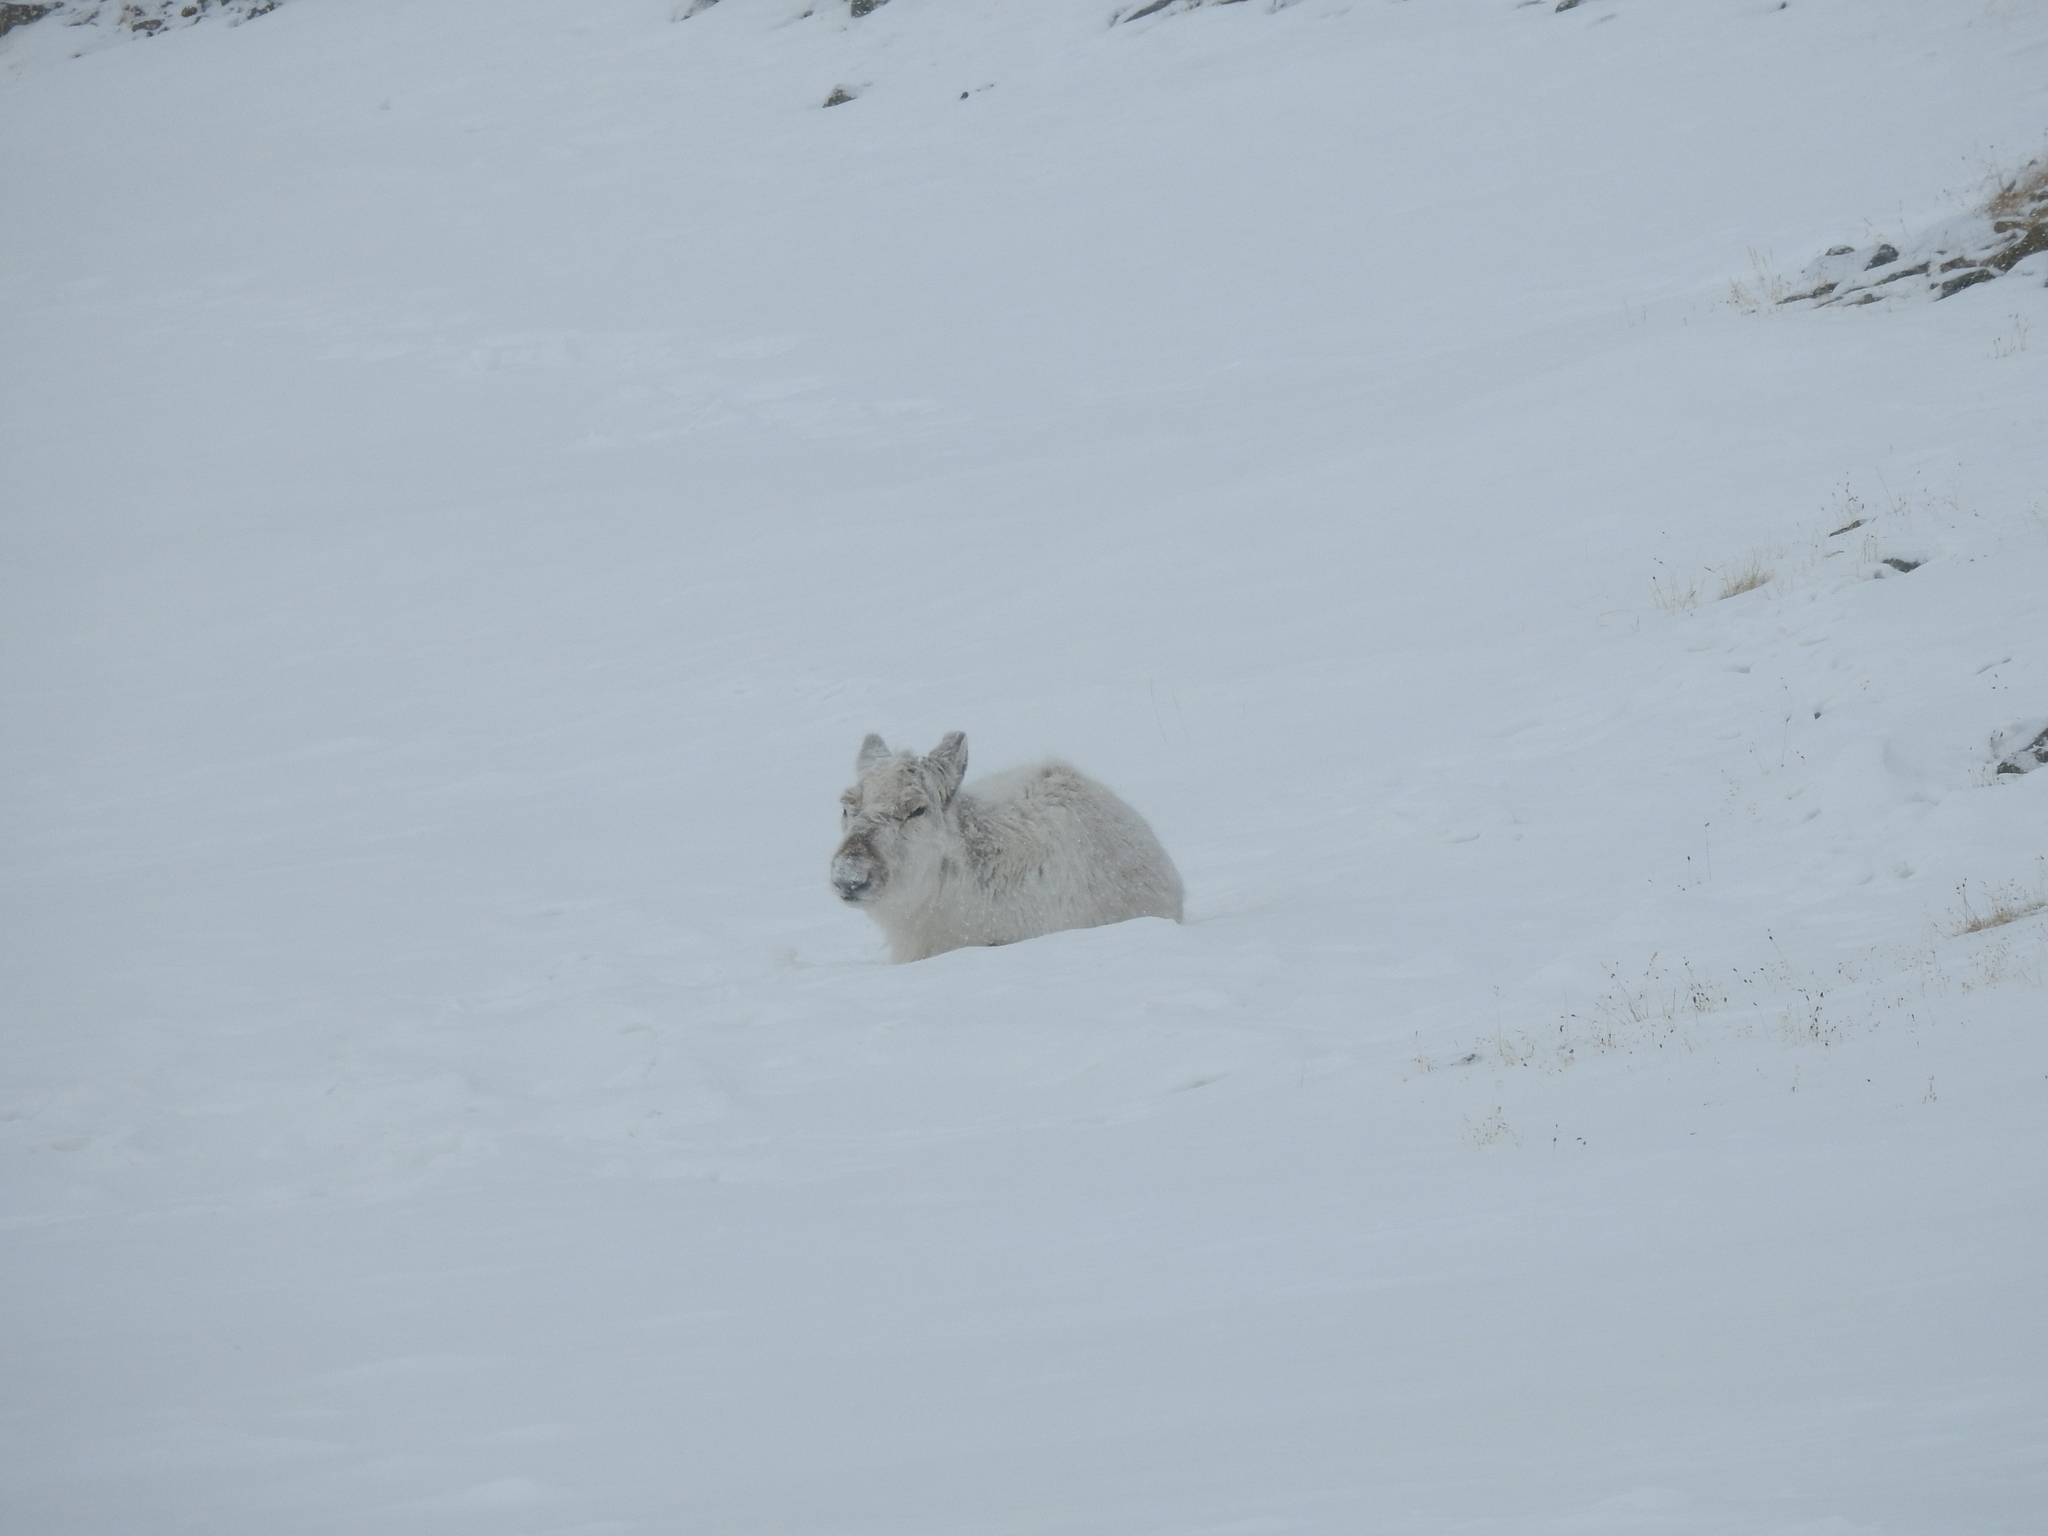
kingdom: Animalia
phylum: Chordata
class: Mammalia
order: Artiodactyla
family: Cervidae
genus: Rangifer
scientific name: Rangifer tarandus
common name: Reindeer
